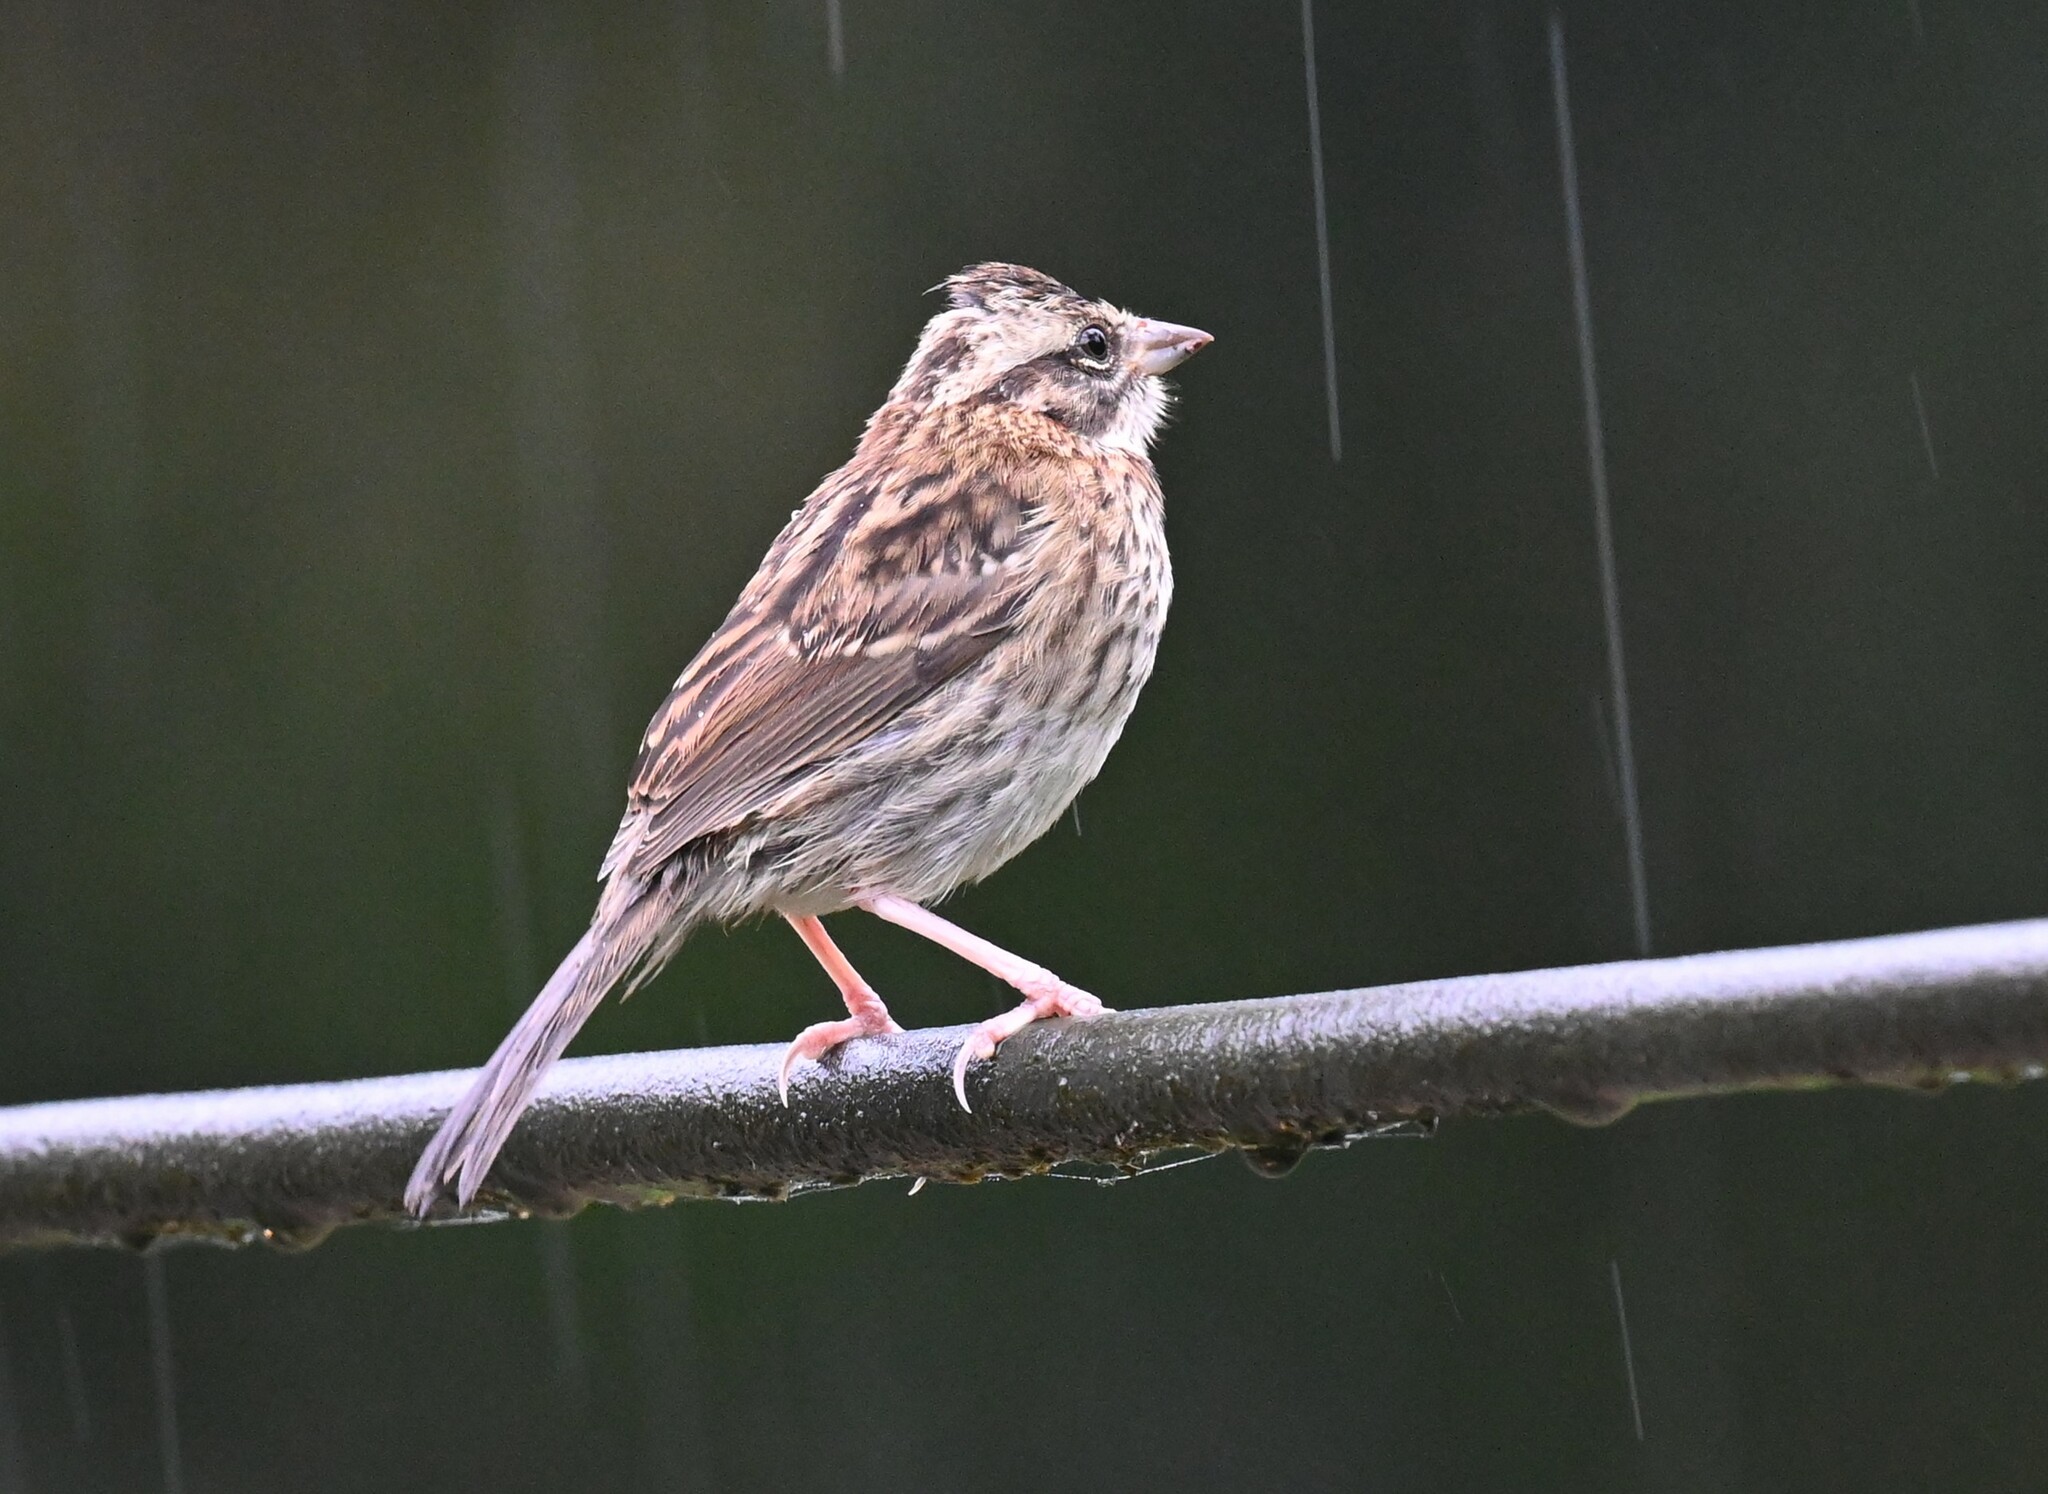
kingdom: Animalia
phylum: Chordata
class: Aves
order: Passeriformes
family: Passerellidae
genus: Zonotrichia
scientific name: Zonotrichia capensis
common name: Rufous-collared sparrow
